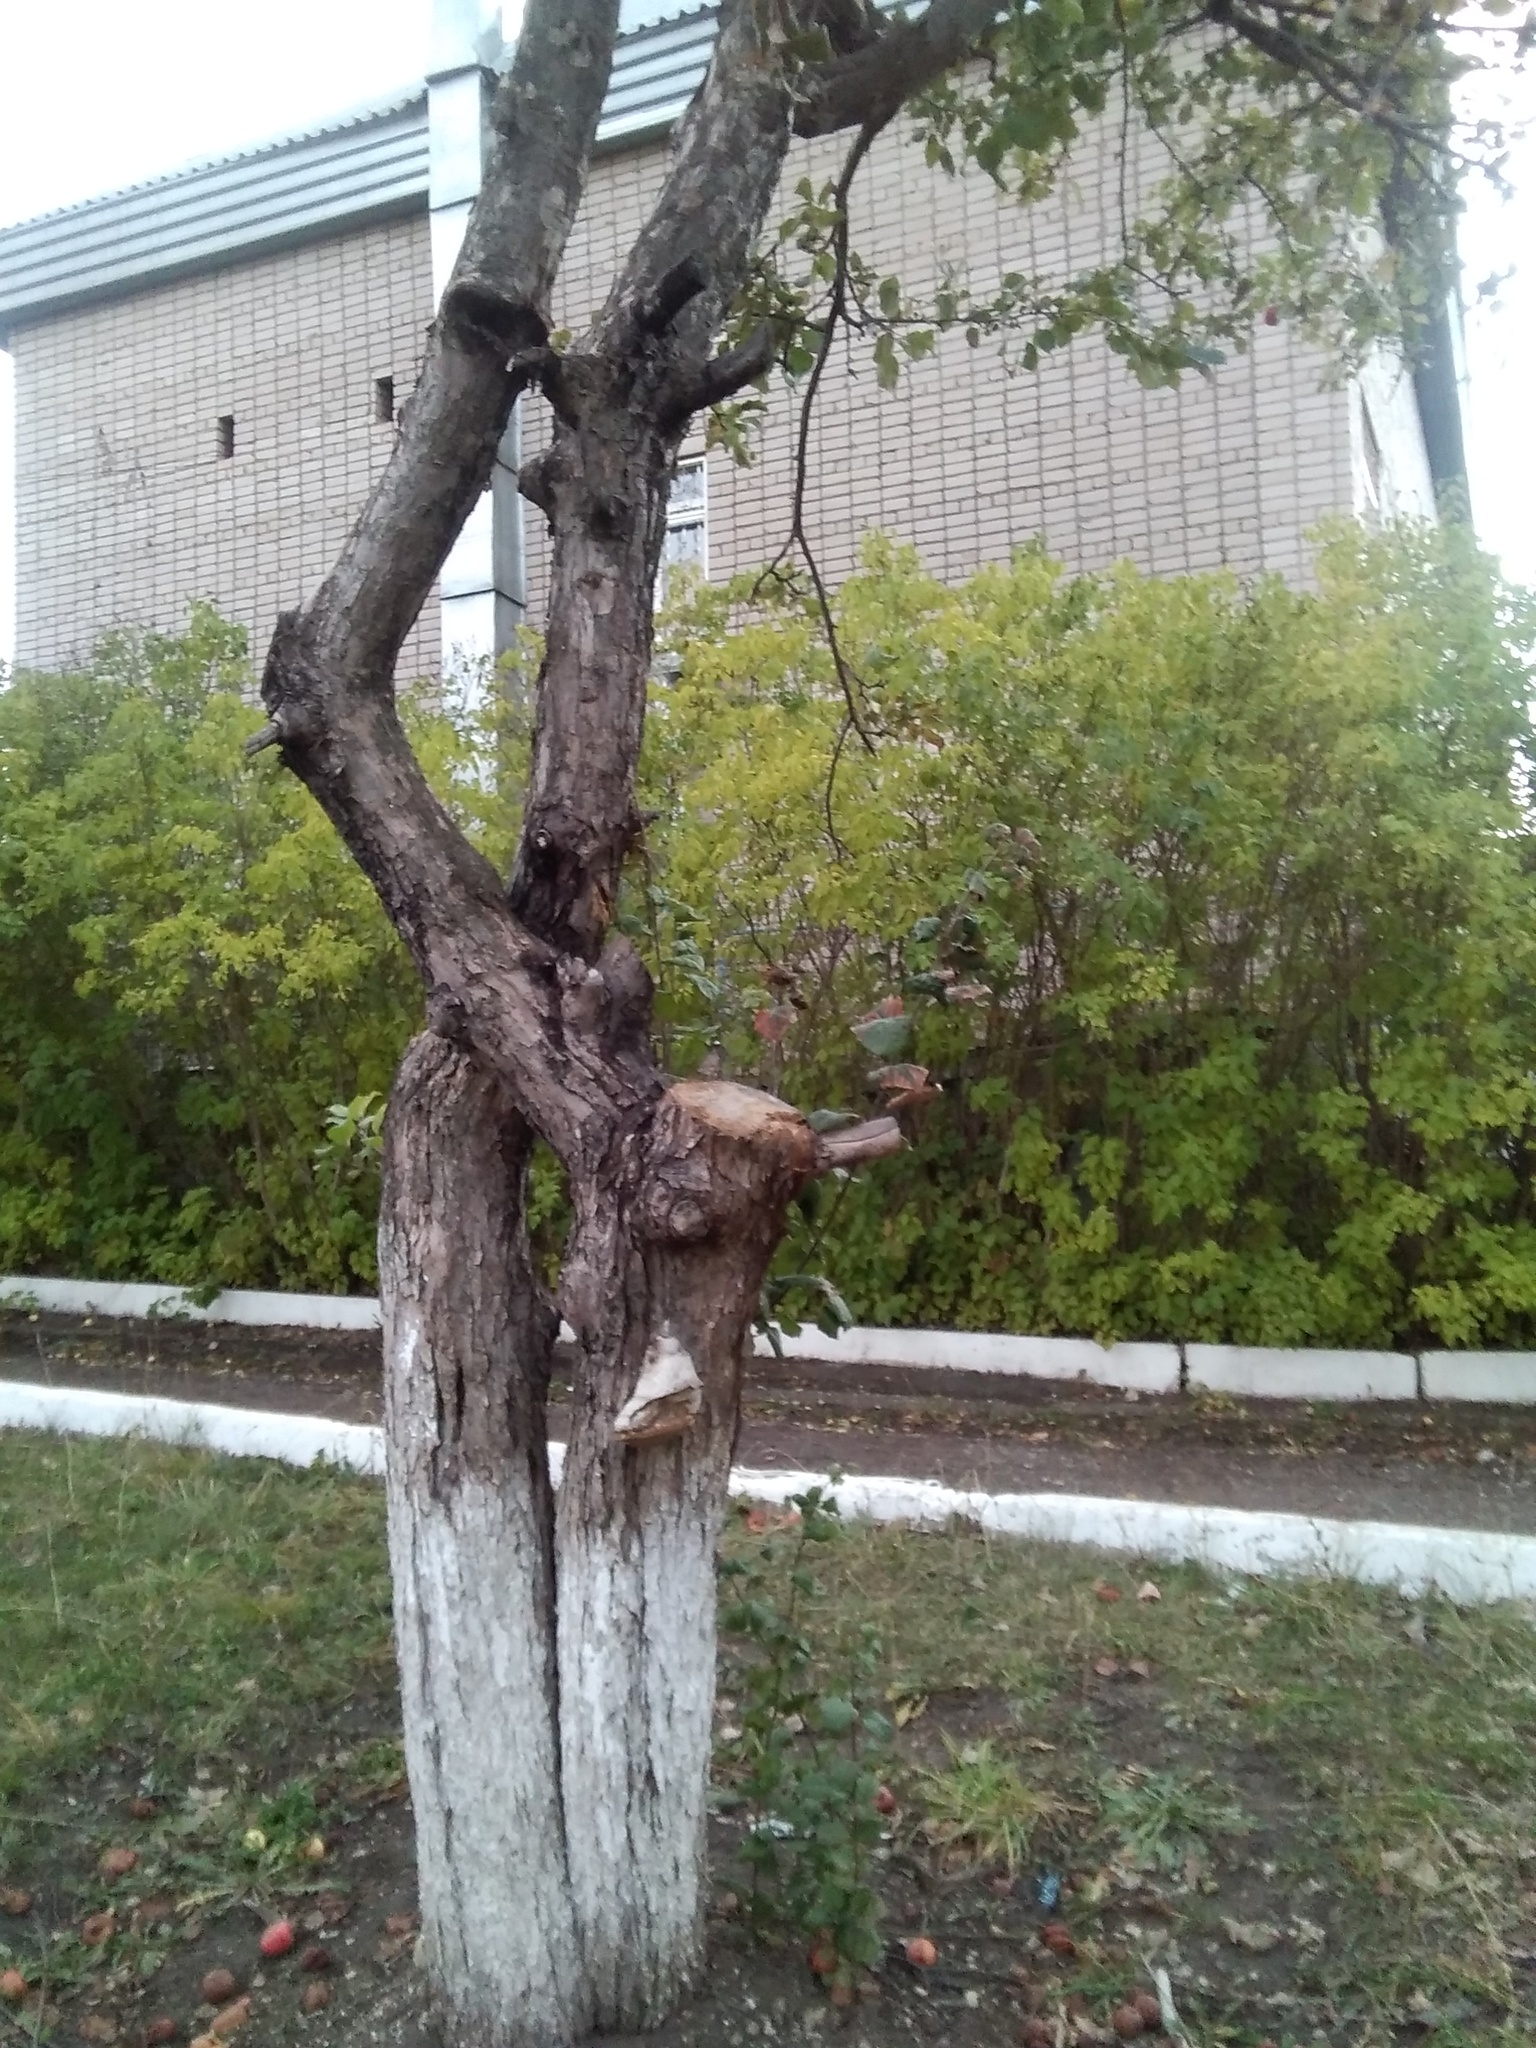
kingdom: Fungi
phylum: Basidiomycota
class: Agaricomycetes
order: Polyporales
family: Polyporaceae
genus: Fomes
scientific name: Fomes fomentarius
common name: Hoof fungus
